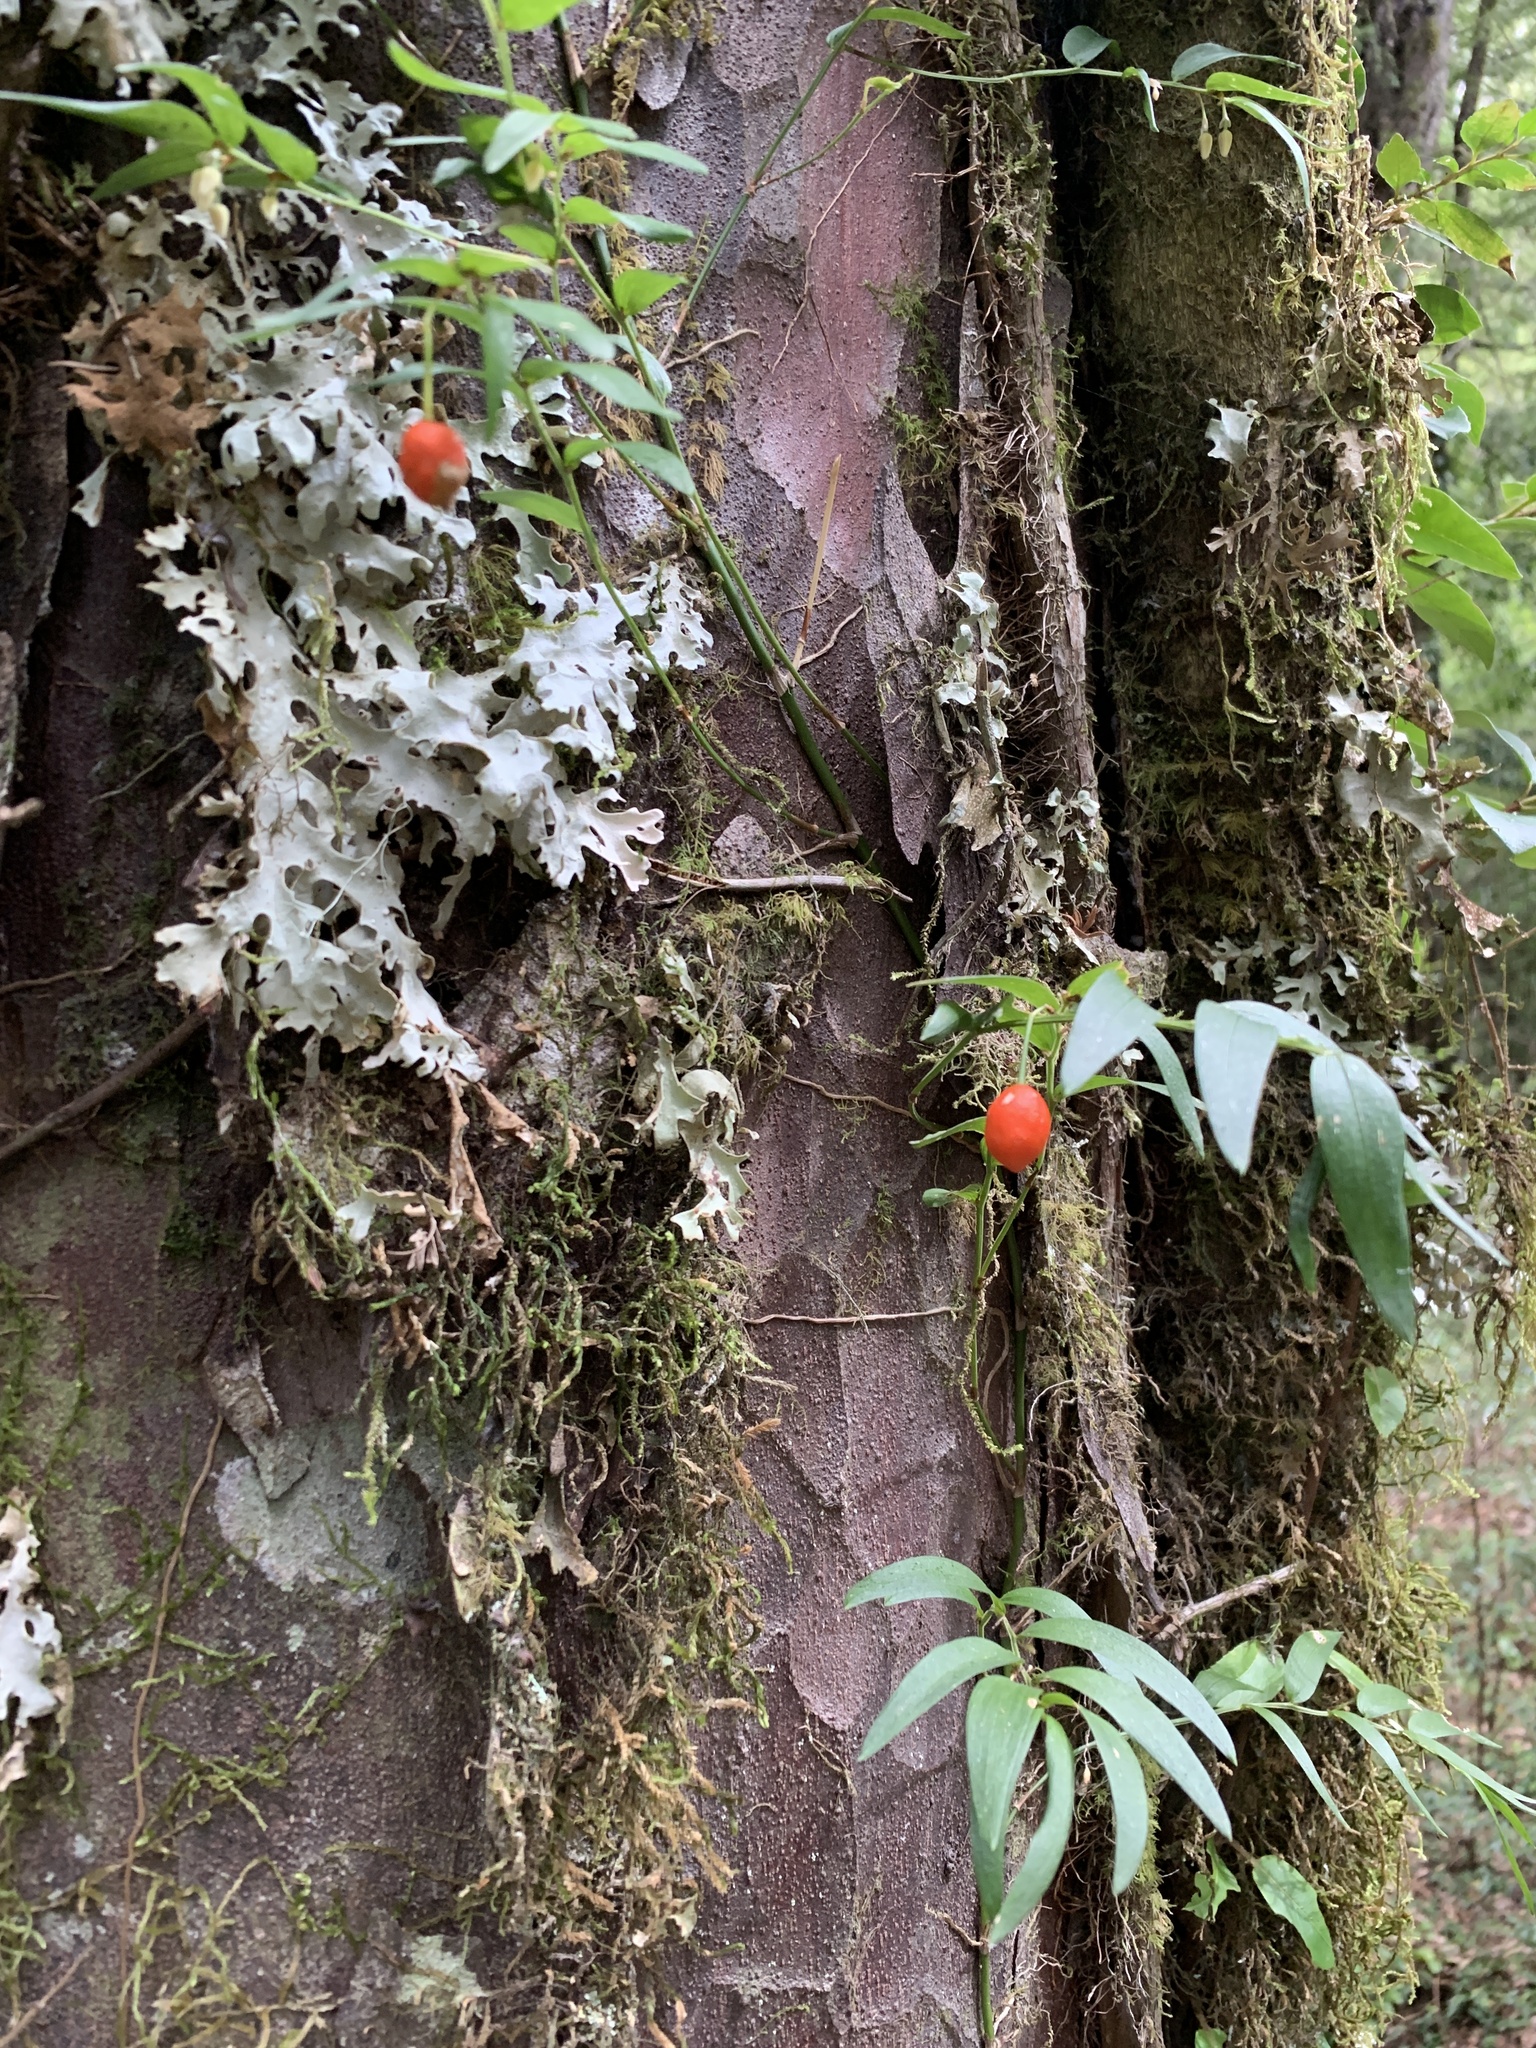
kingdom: Plantae
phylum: Tracheophyta
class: Liliopsida
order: Liliales
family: Alstroemeriaceae
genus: Luzuriaga
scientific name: Luzuriaga radicans
